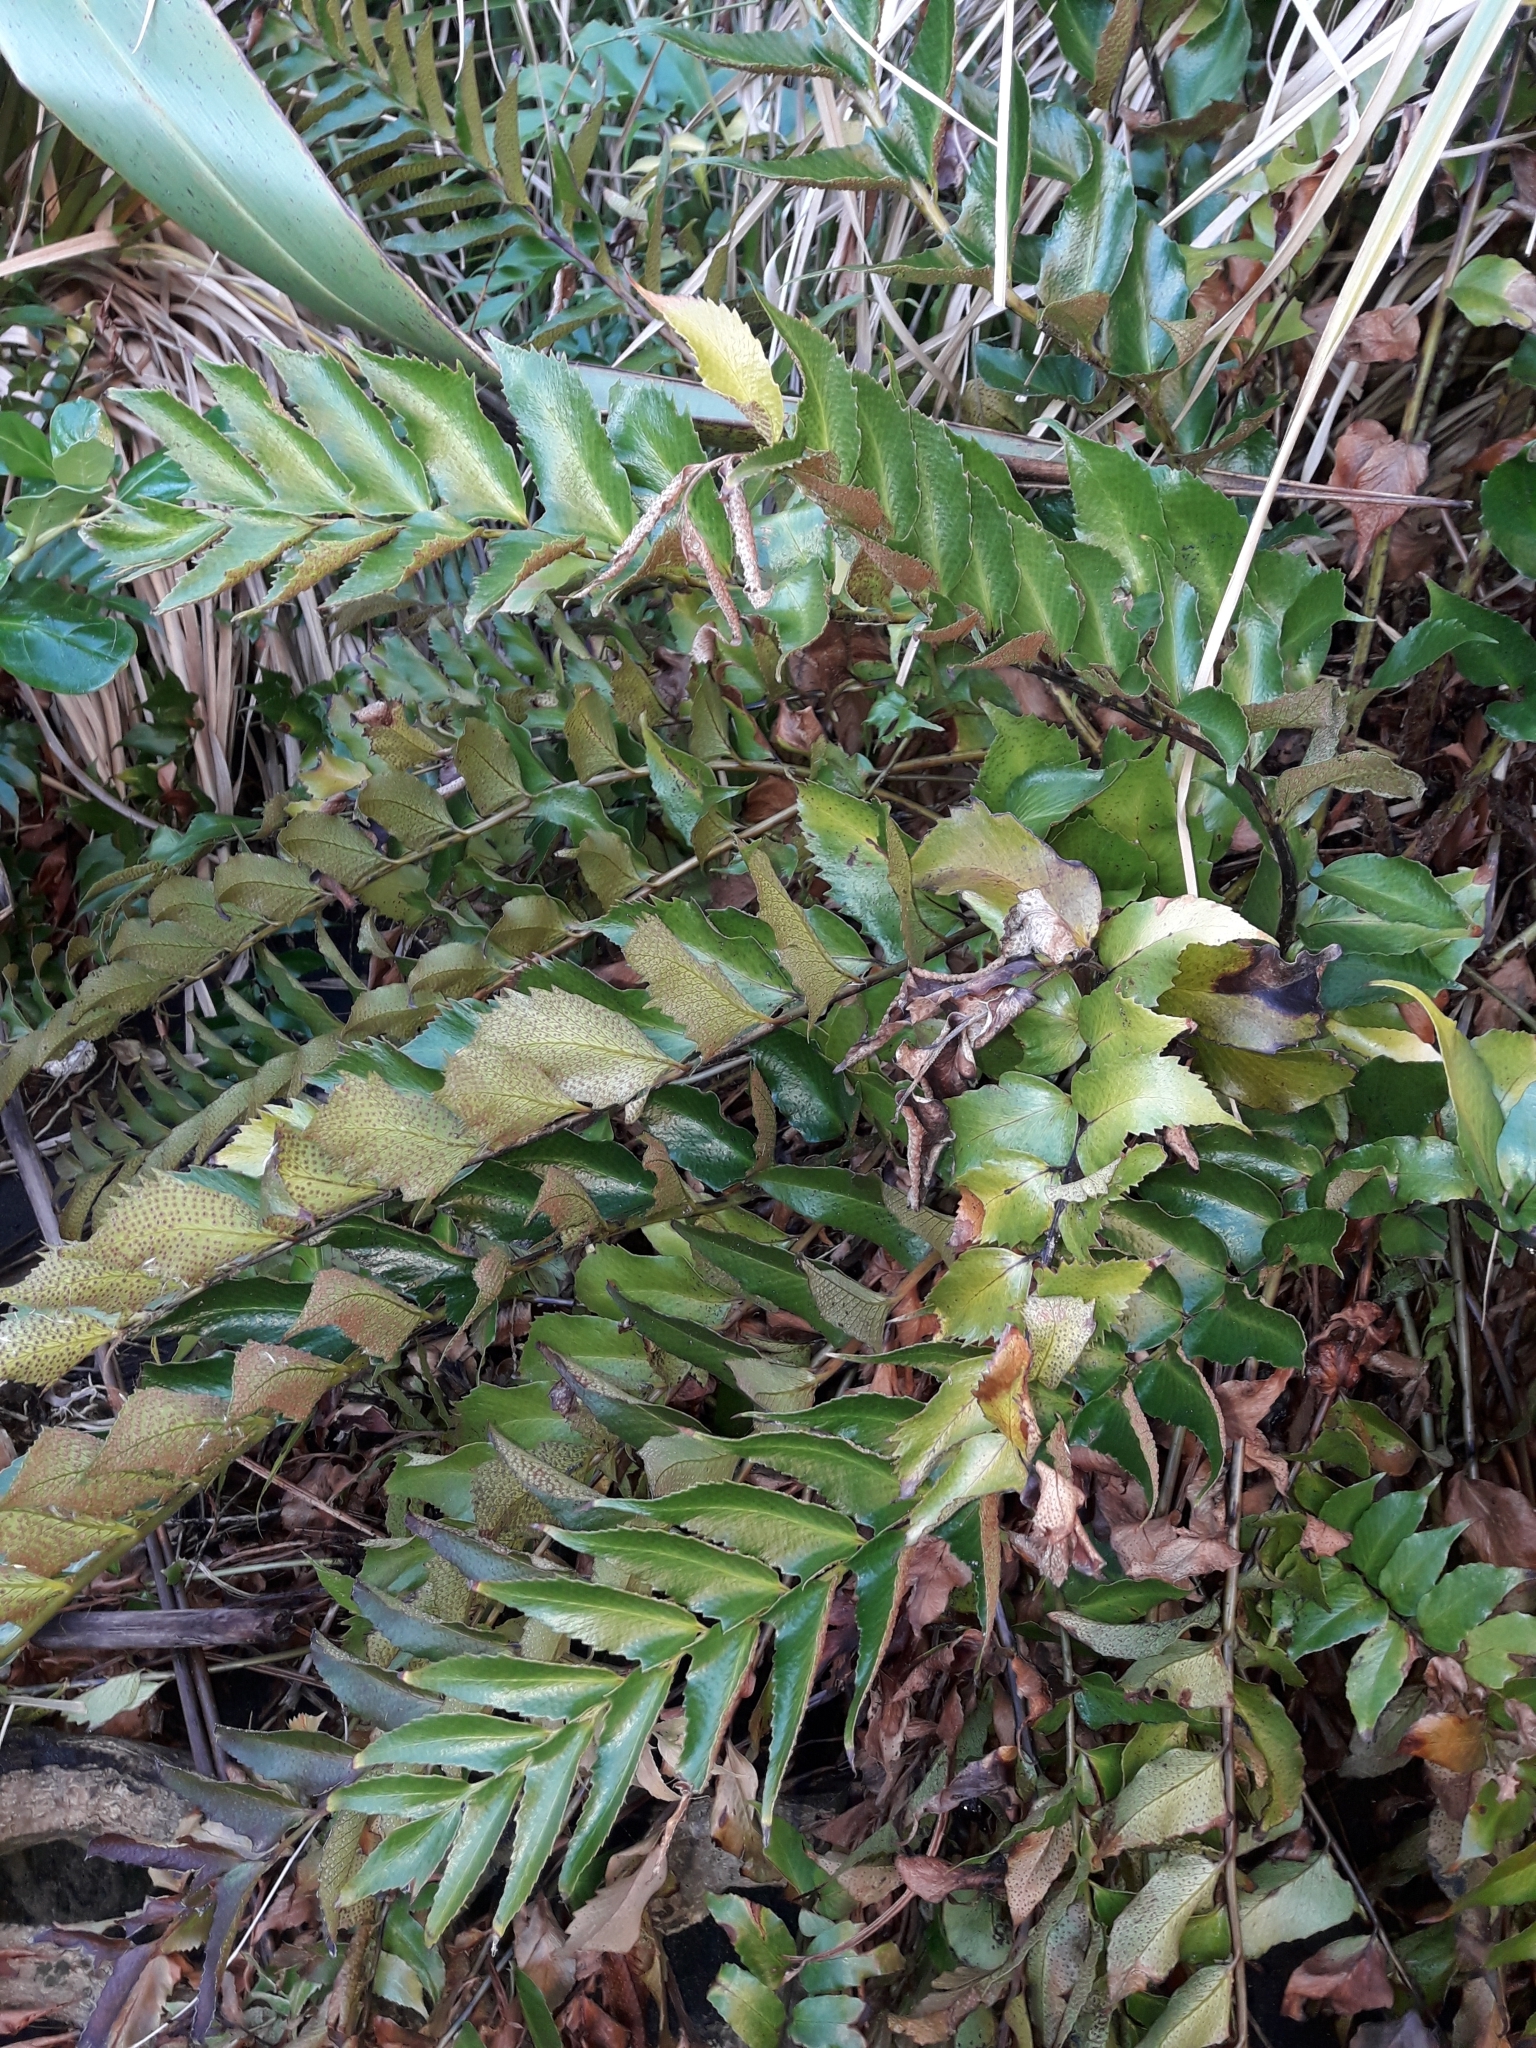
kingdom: Plantae
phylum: Tracheophyta
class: Polypodiopsida
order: Polypodiales
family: Dryopteridaceae
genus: Cyrtomium
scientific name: Cyrtomium falcatum
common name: House holly-fern
